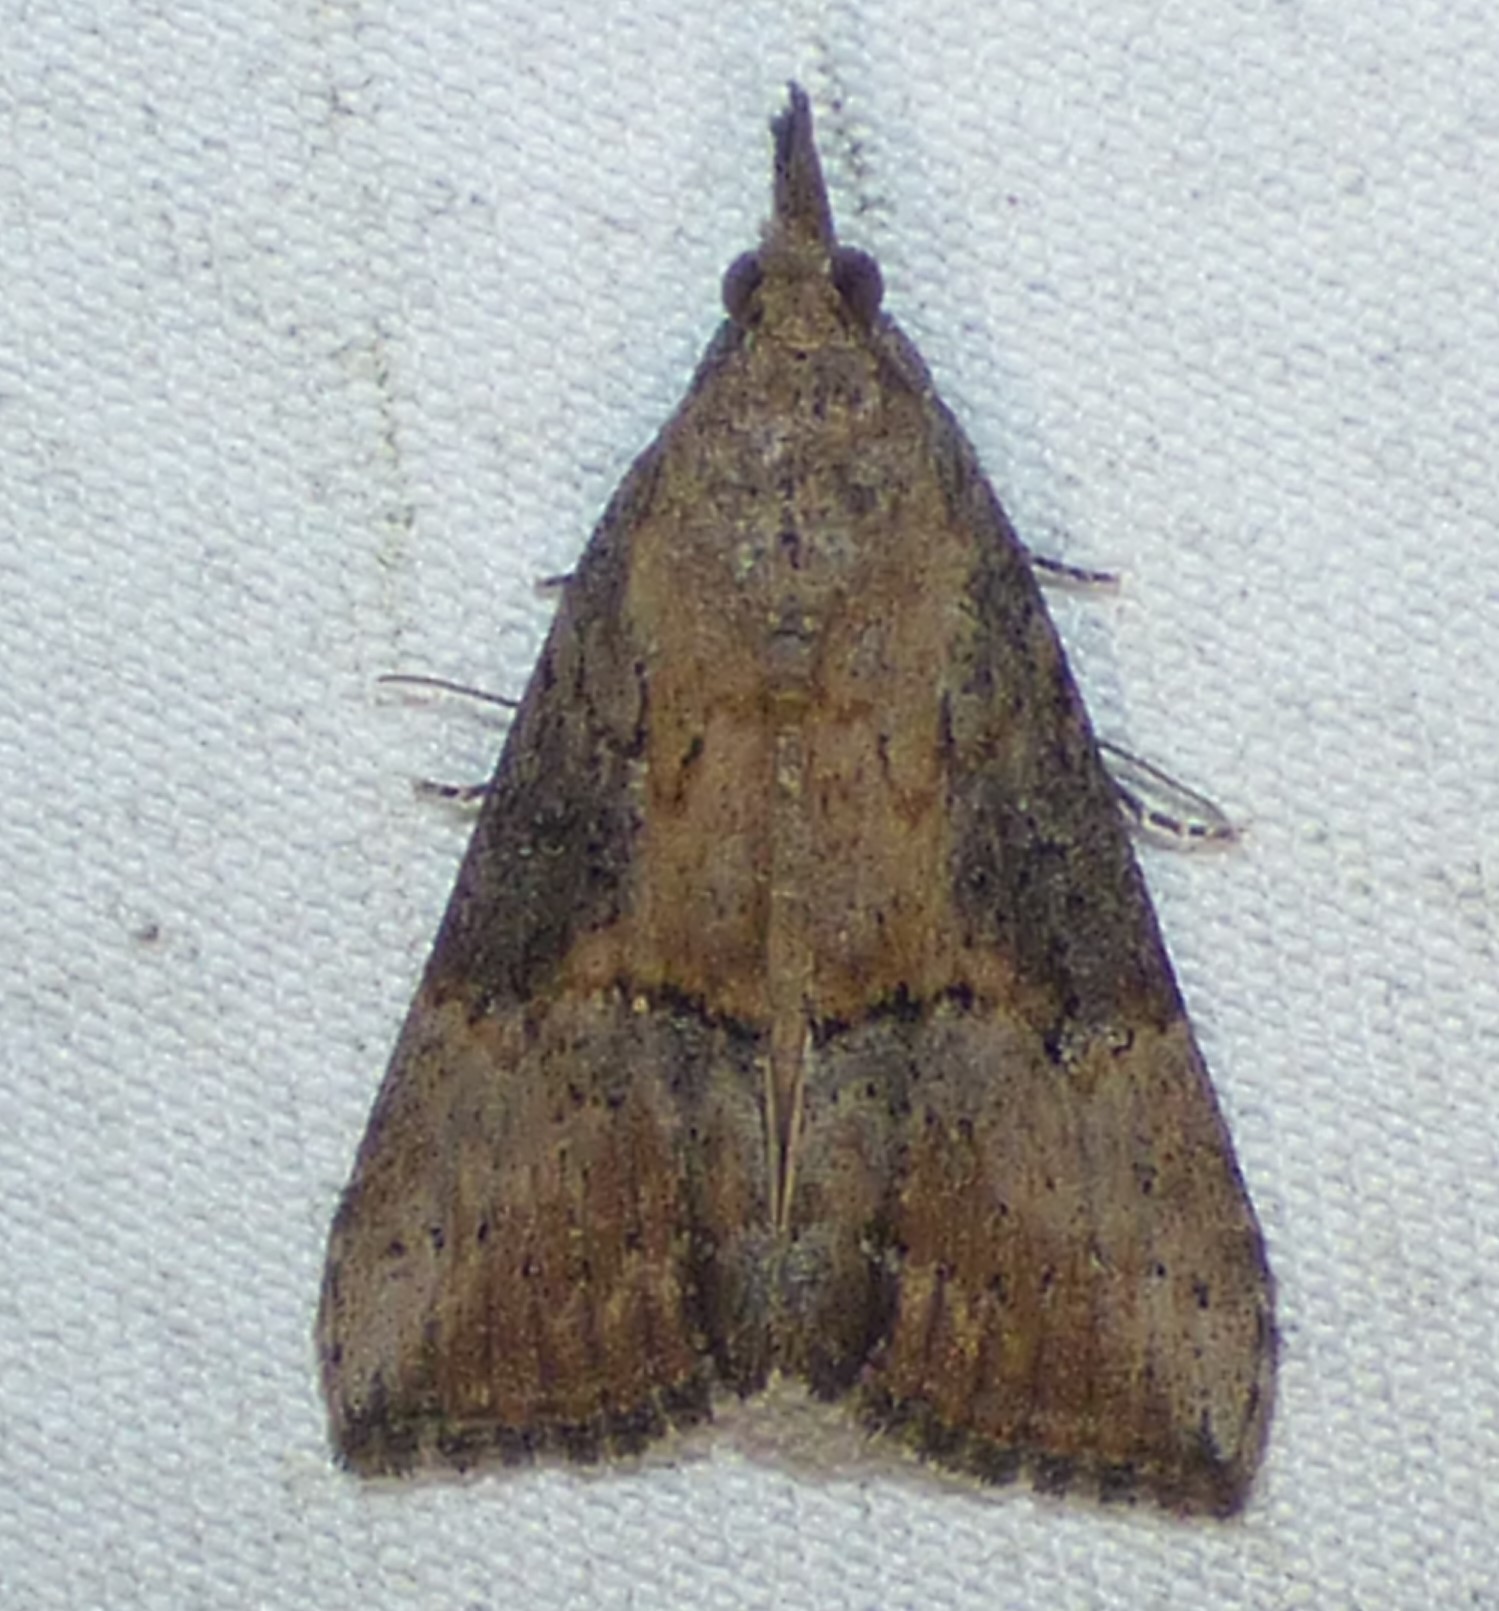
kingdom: Animalia
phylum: Arthropoda
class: Insecta
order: Lepidoptera
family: Erebidae
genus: Hypena
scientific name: Hypena scabra
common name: Green cloverworm
